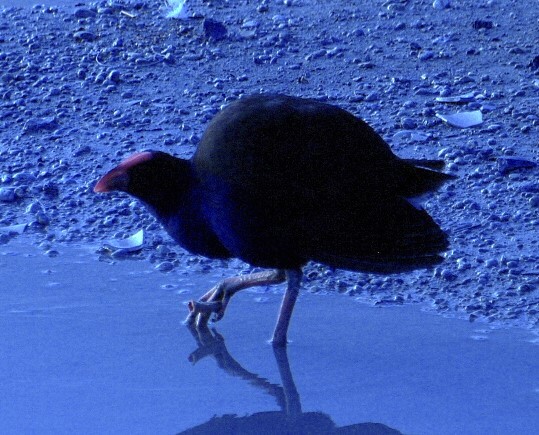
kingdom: Animalia
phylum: Chordata
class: Aves
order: Gruiformes
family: Rallidae
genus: Porphyrio
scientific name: Porphyrio melanotus
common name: Australasian swamphen
